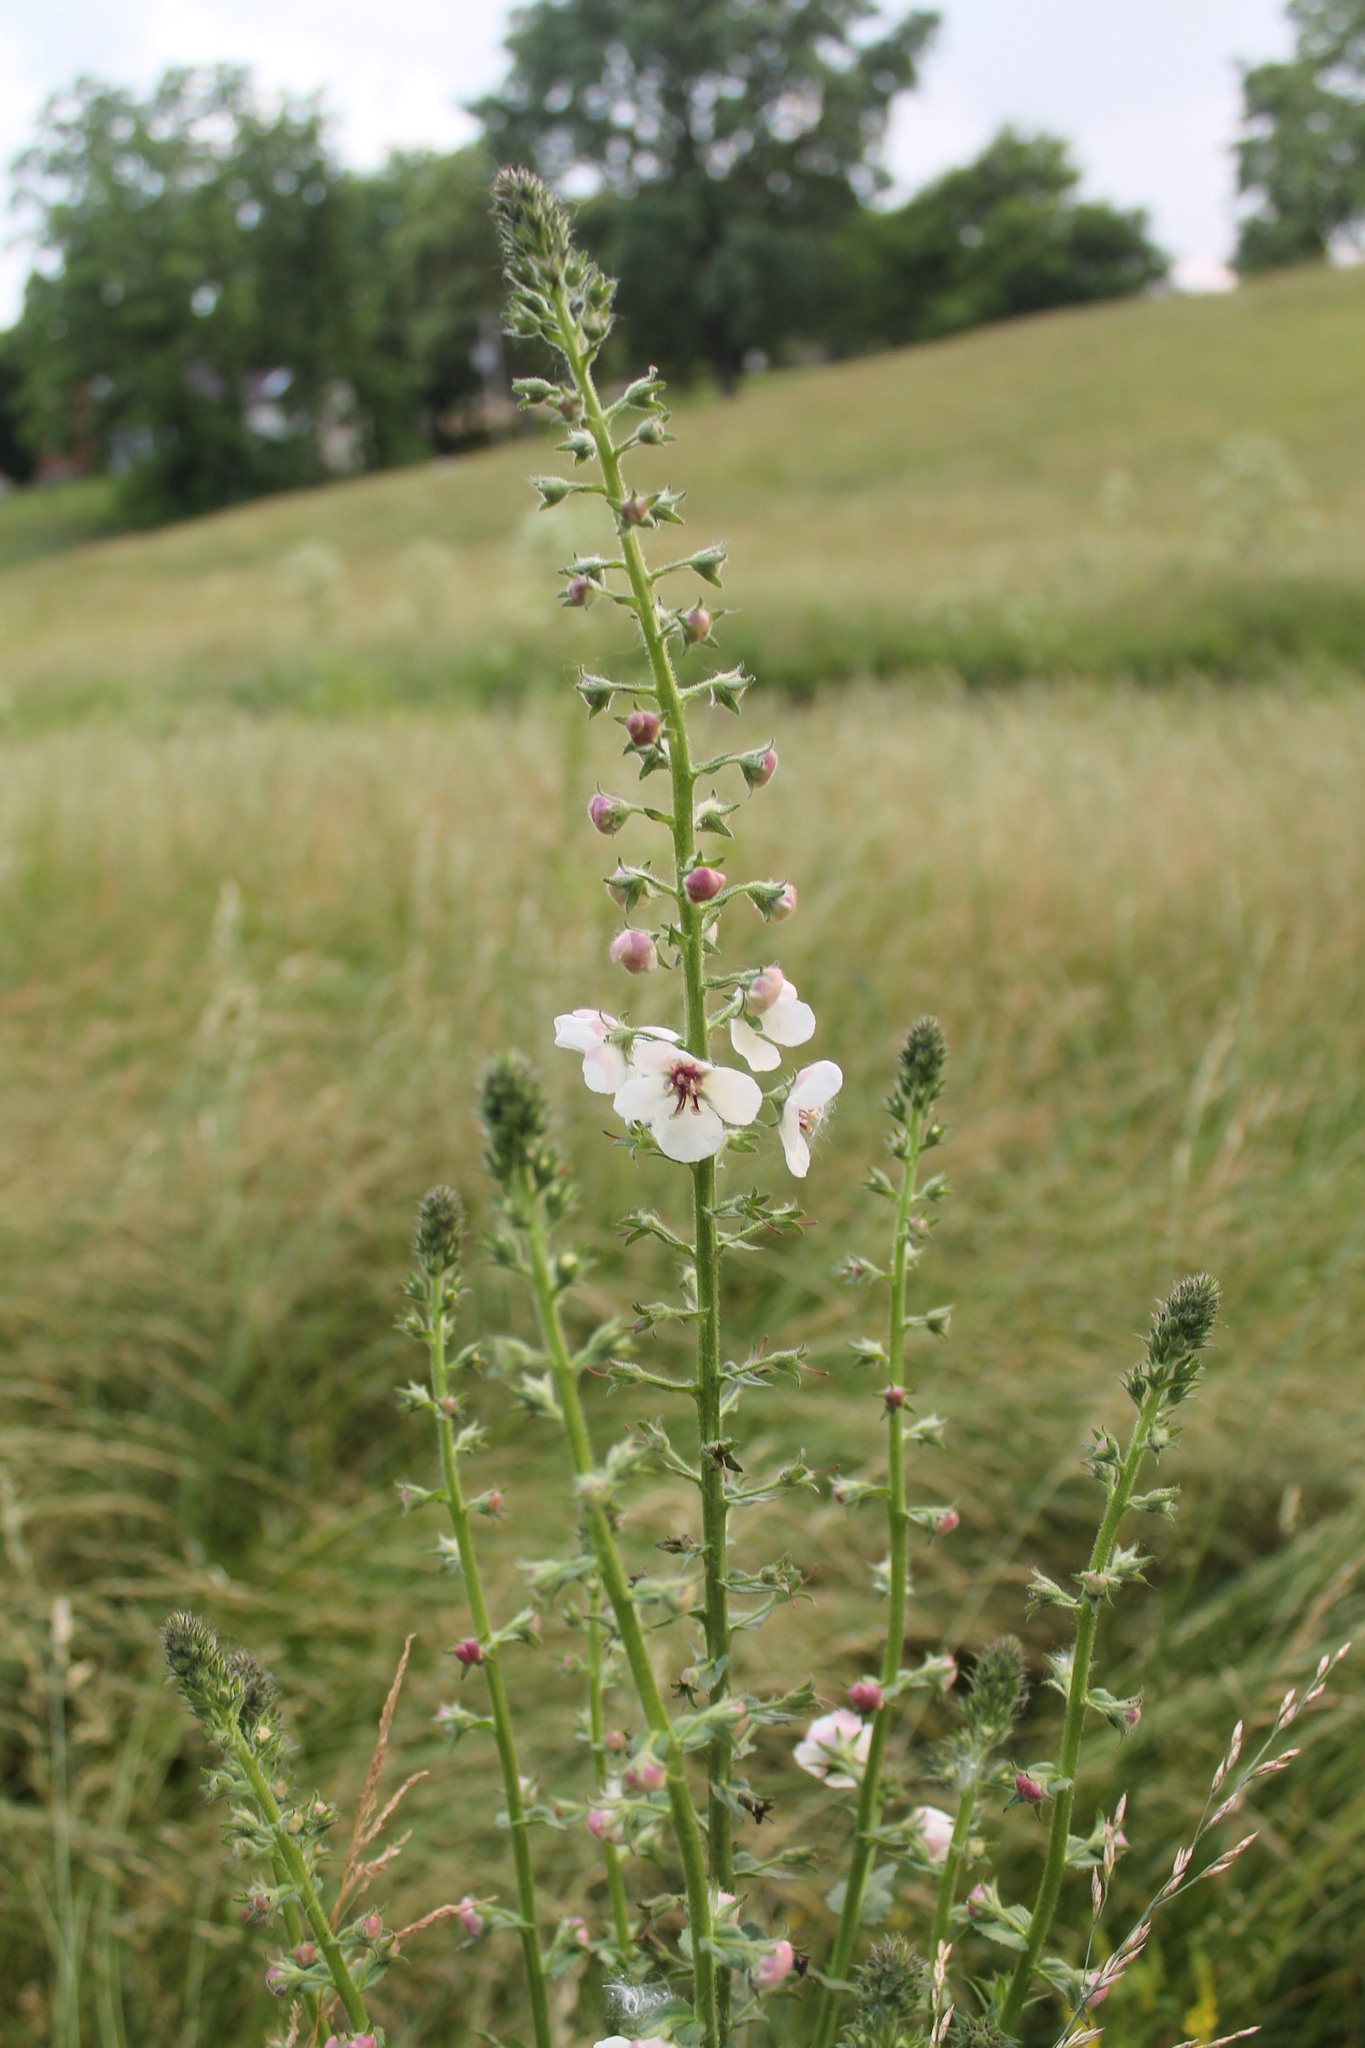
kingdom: Plantae
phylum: Tracheophyta
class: Magnoliopsida
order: Lamiales
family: Scrophulariaceae
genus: Verbascum
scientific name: Verbascum blattaria
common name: Moth mullein
